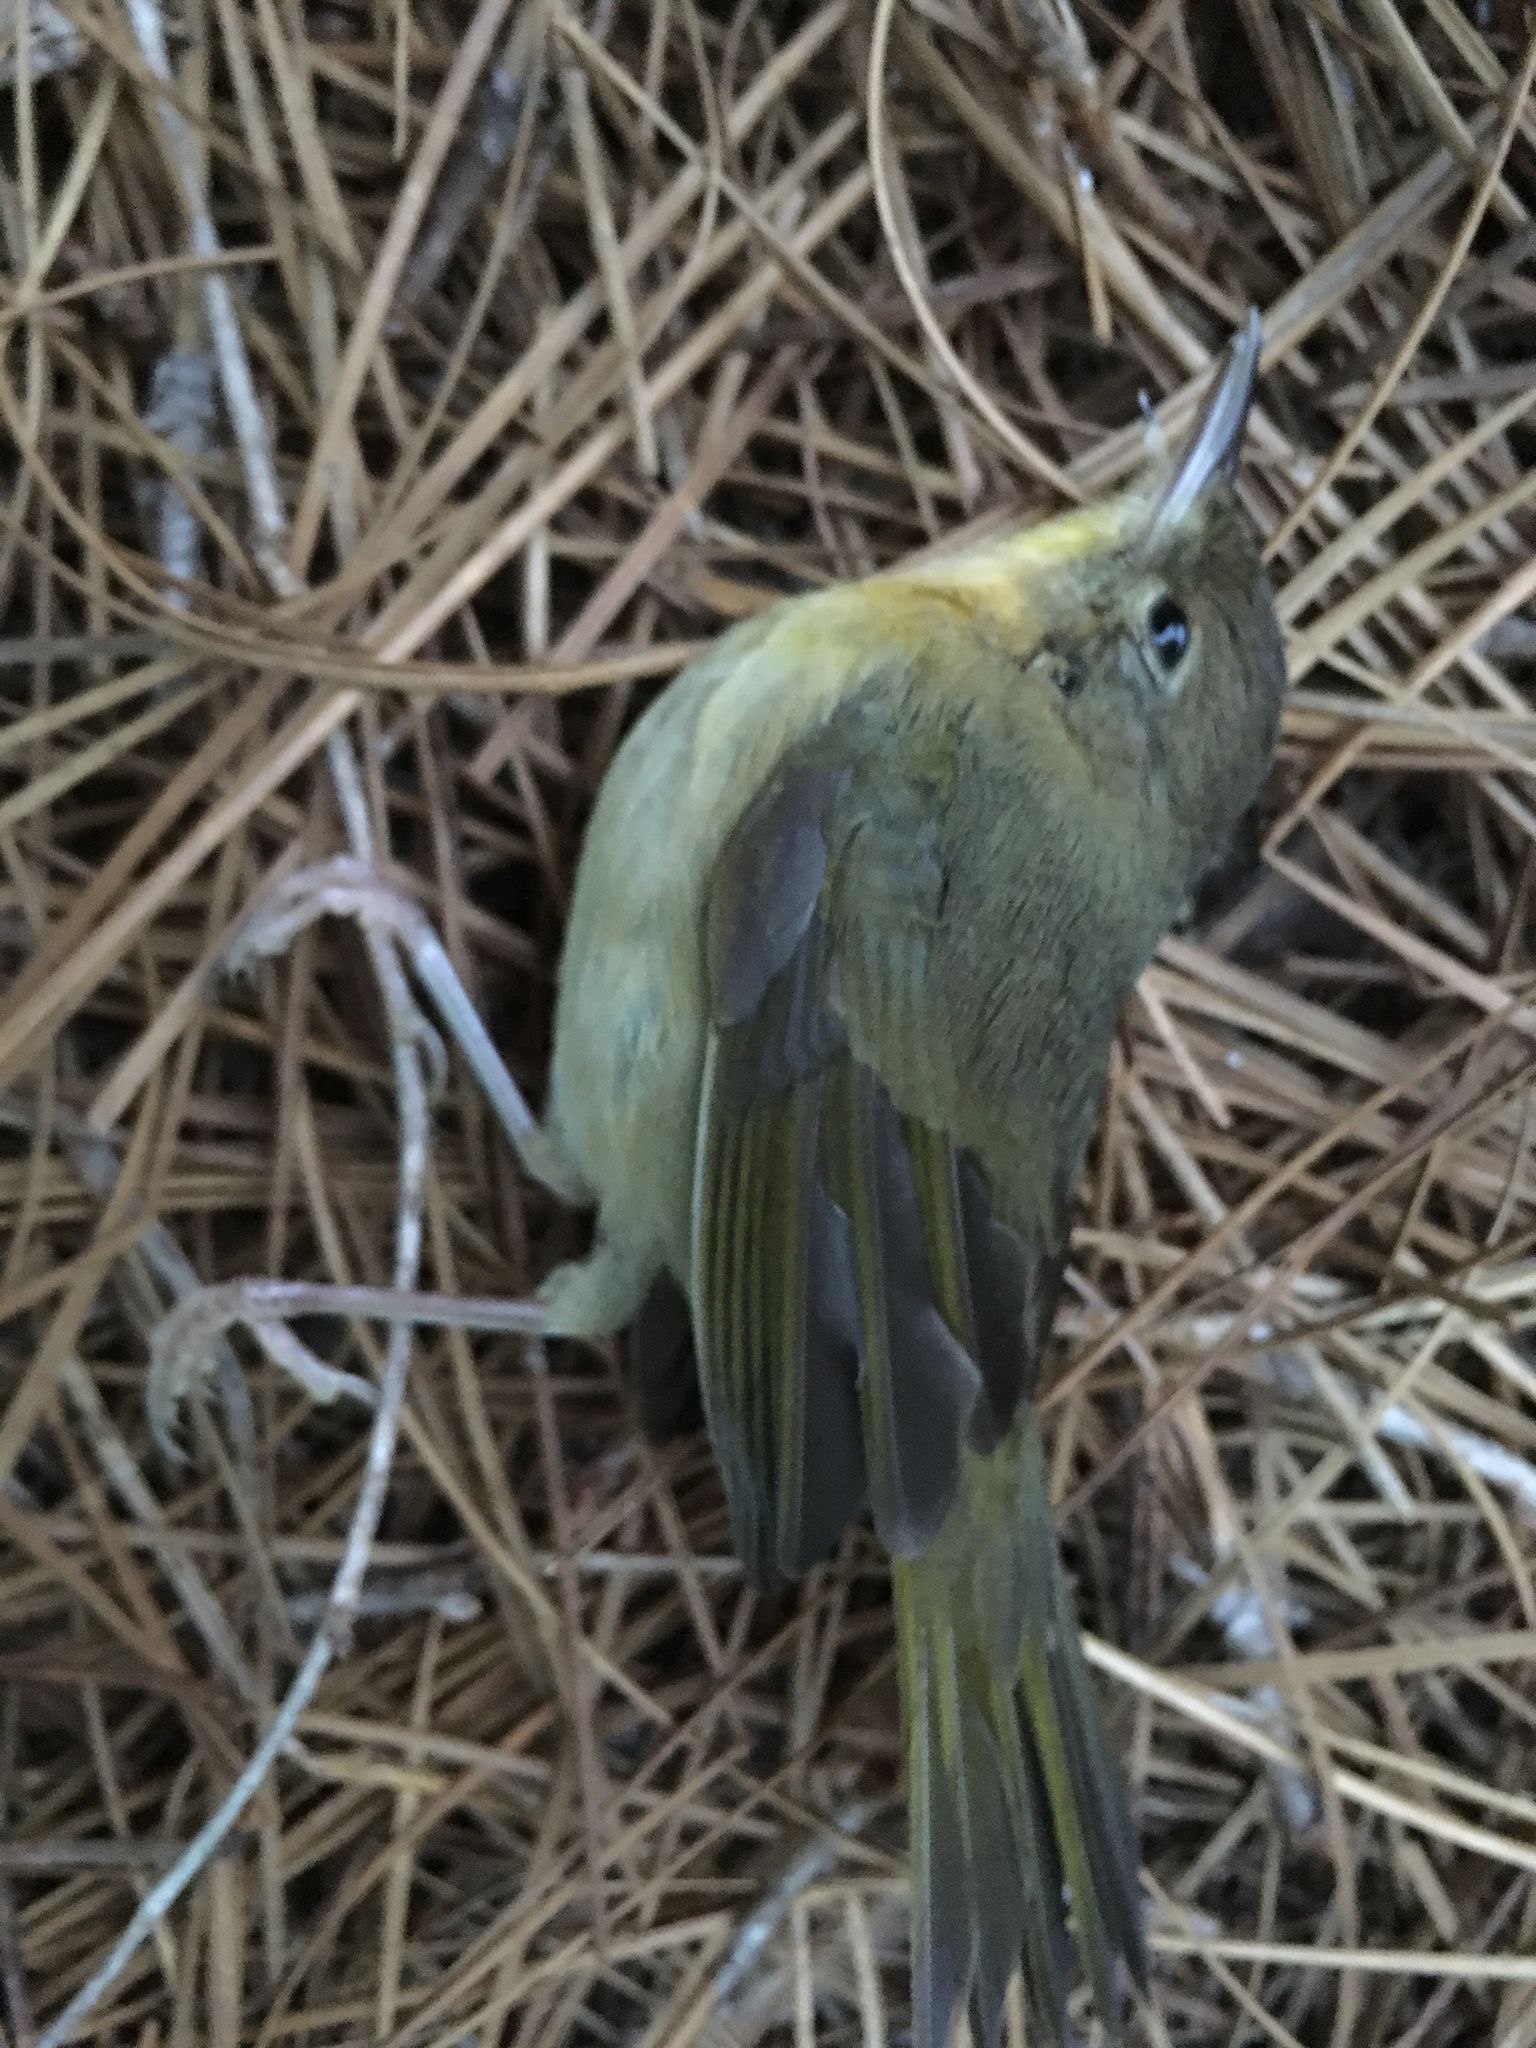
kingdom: Animalia
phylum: Chordata
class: Aves
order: Passeriformes
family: Parulidae
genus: Geothlypis
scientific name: Geothlypis trichas
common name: Common yellowthroat
